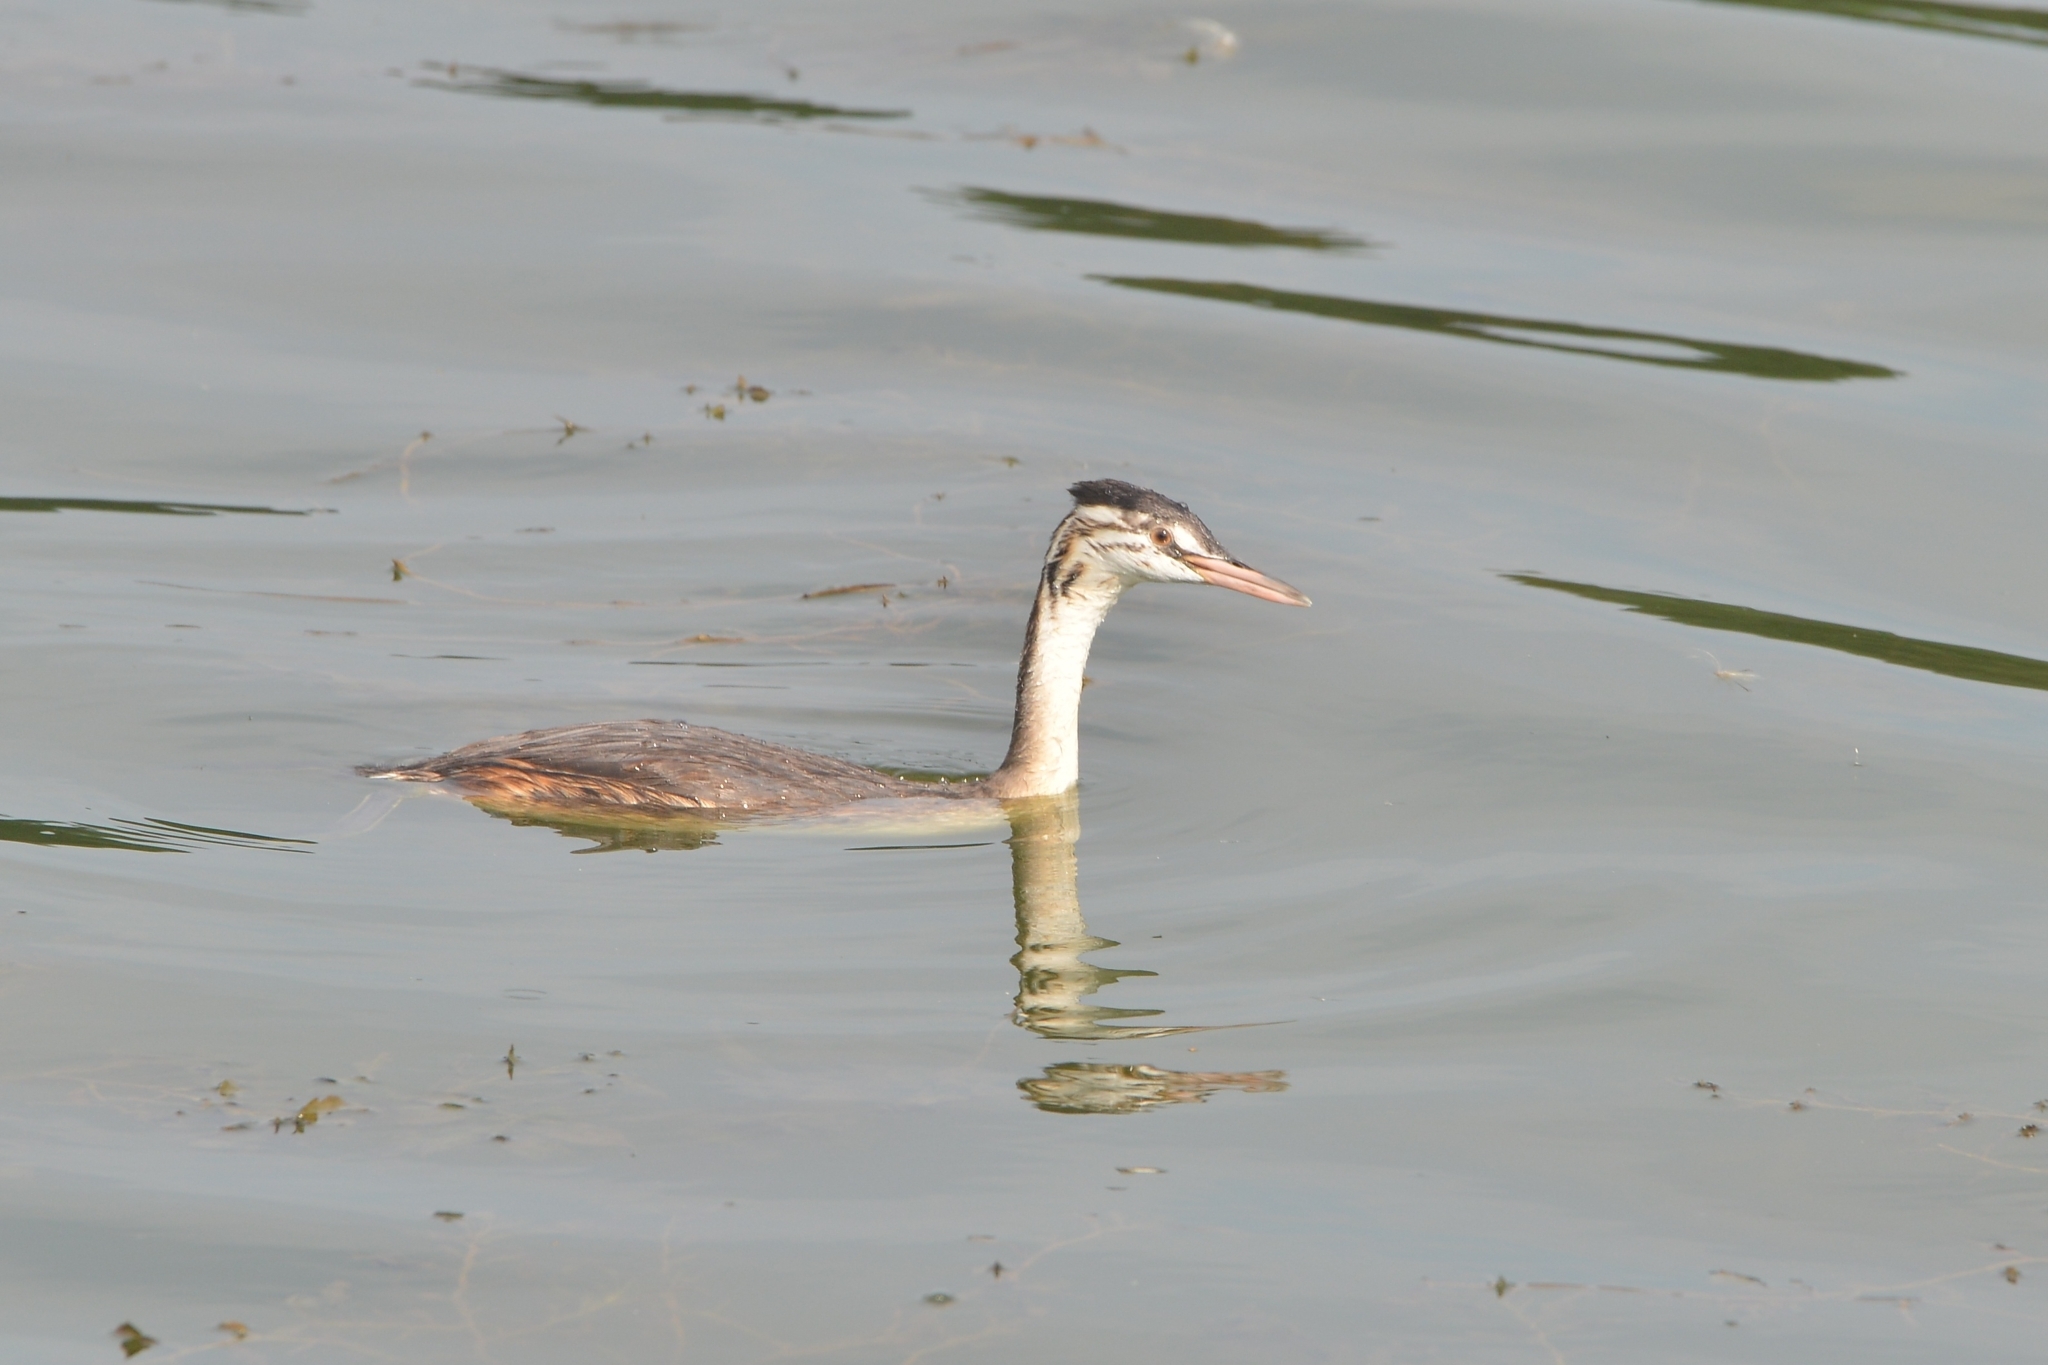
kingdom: Animalia
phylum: Chordata
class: Aves
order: Podicipediformes
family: Podicipedidae
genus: Podiceps
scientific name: Podiceps cristatus
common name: Great crested grebe
